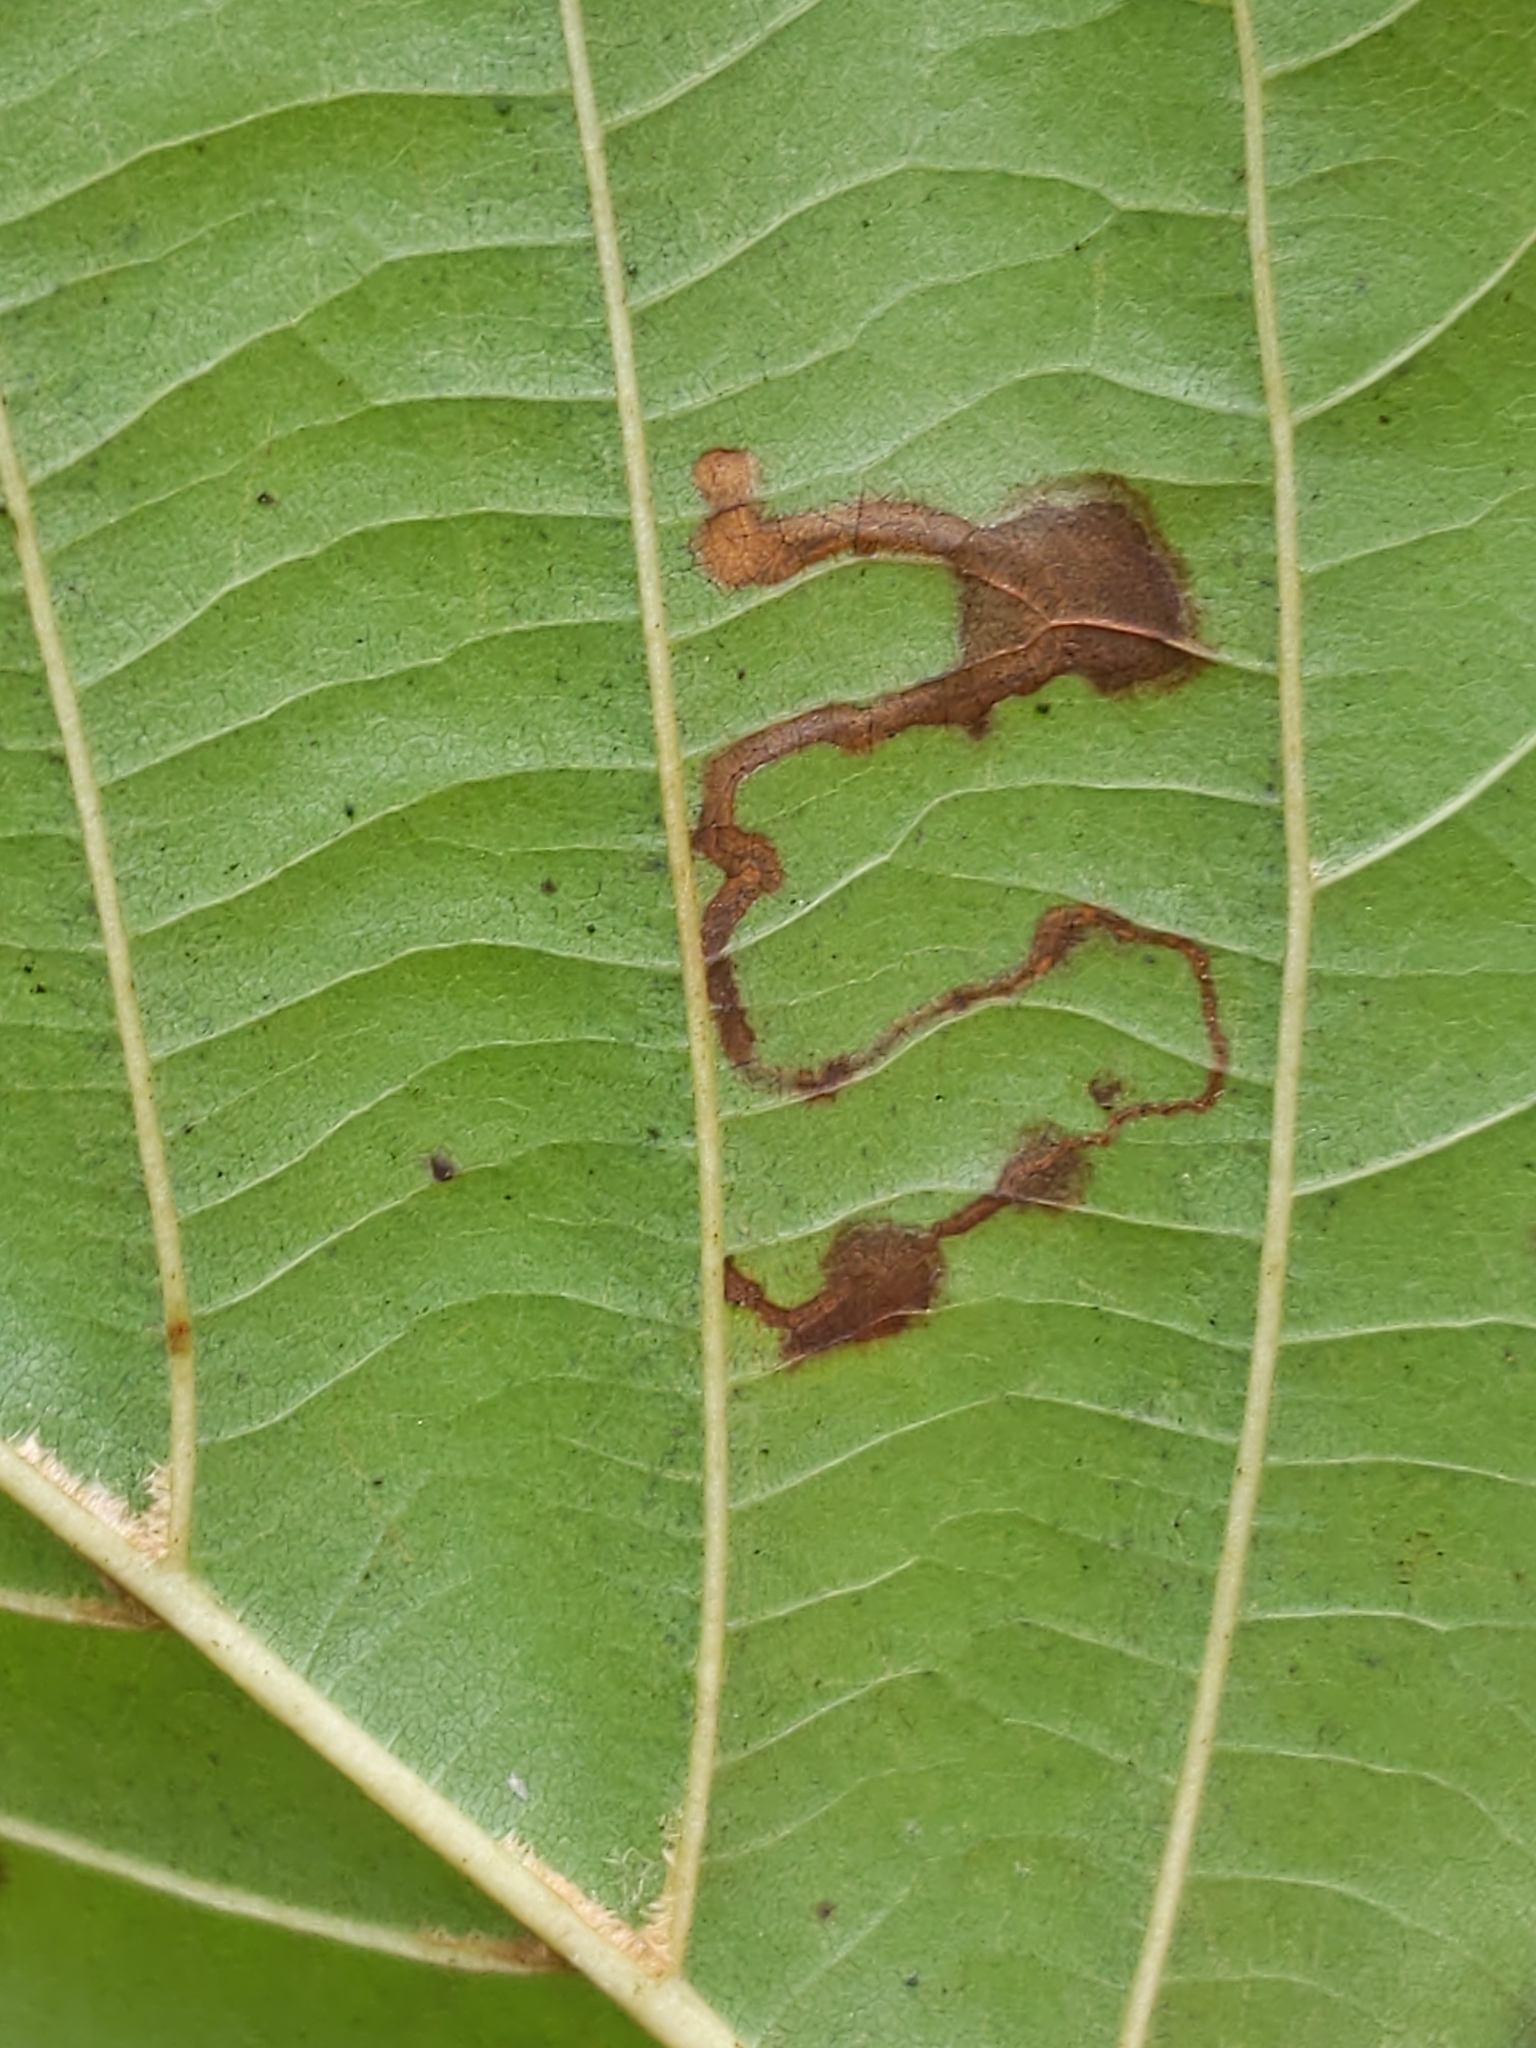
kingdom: Animalia
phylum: Arthropoda
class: Insecta
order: Lepidoptera
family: Nepticulidae
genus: Stigmella
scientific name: Stigmella corylifoliella
